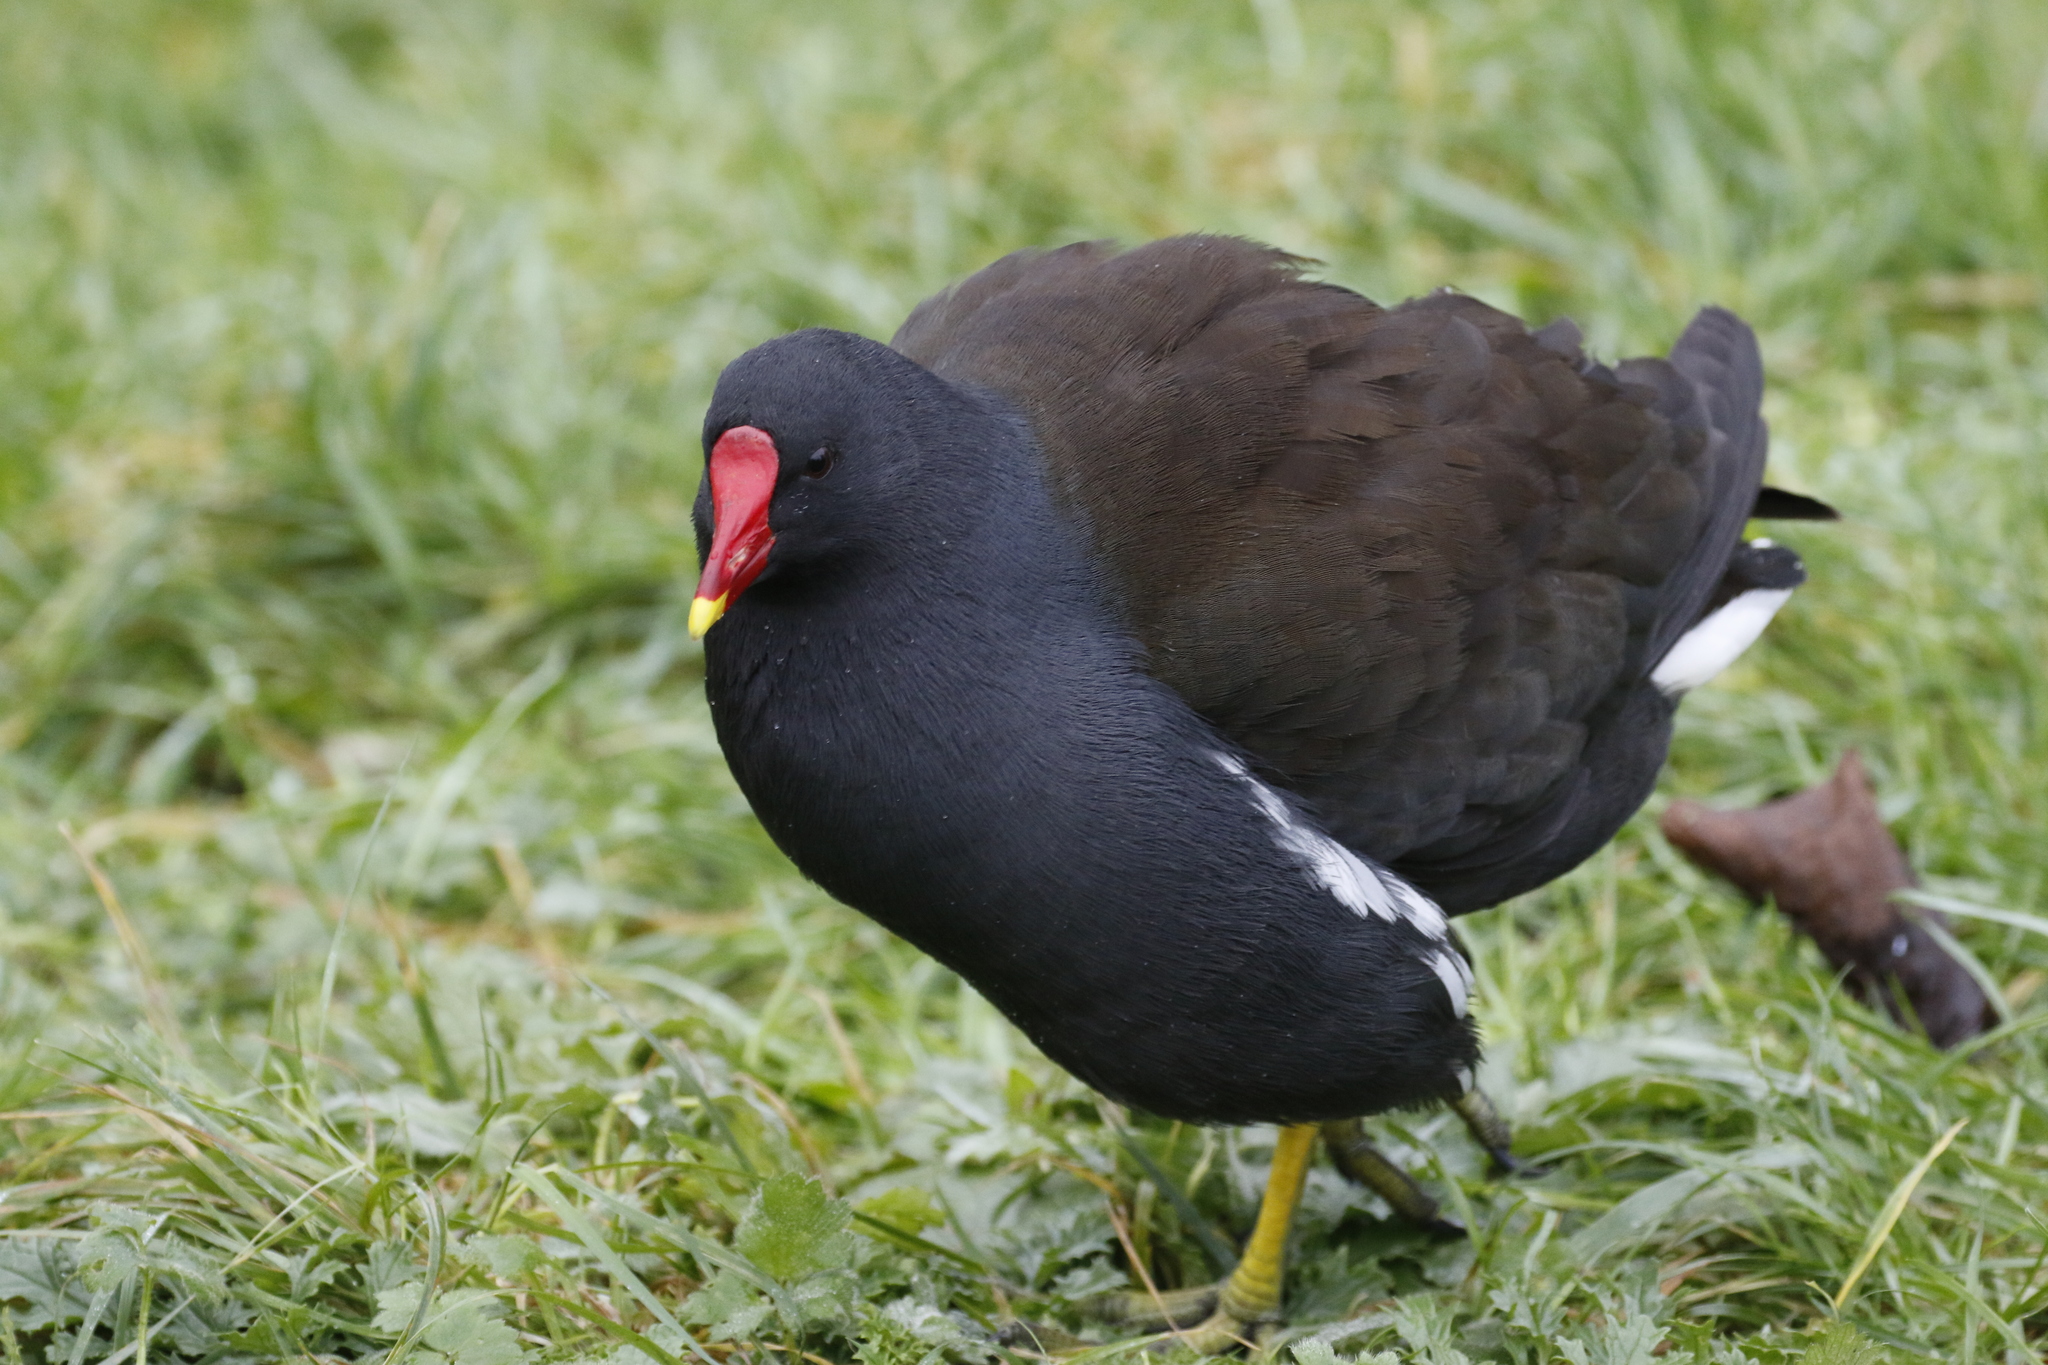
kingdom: Animalia
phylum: Chordata
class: Aves
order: Gruiformes
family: Rallidae
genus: Gallinula
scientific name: Gallinula chloropus
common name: Common moorhen
